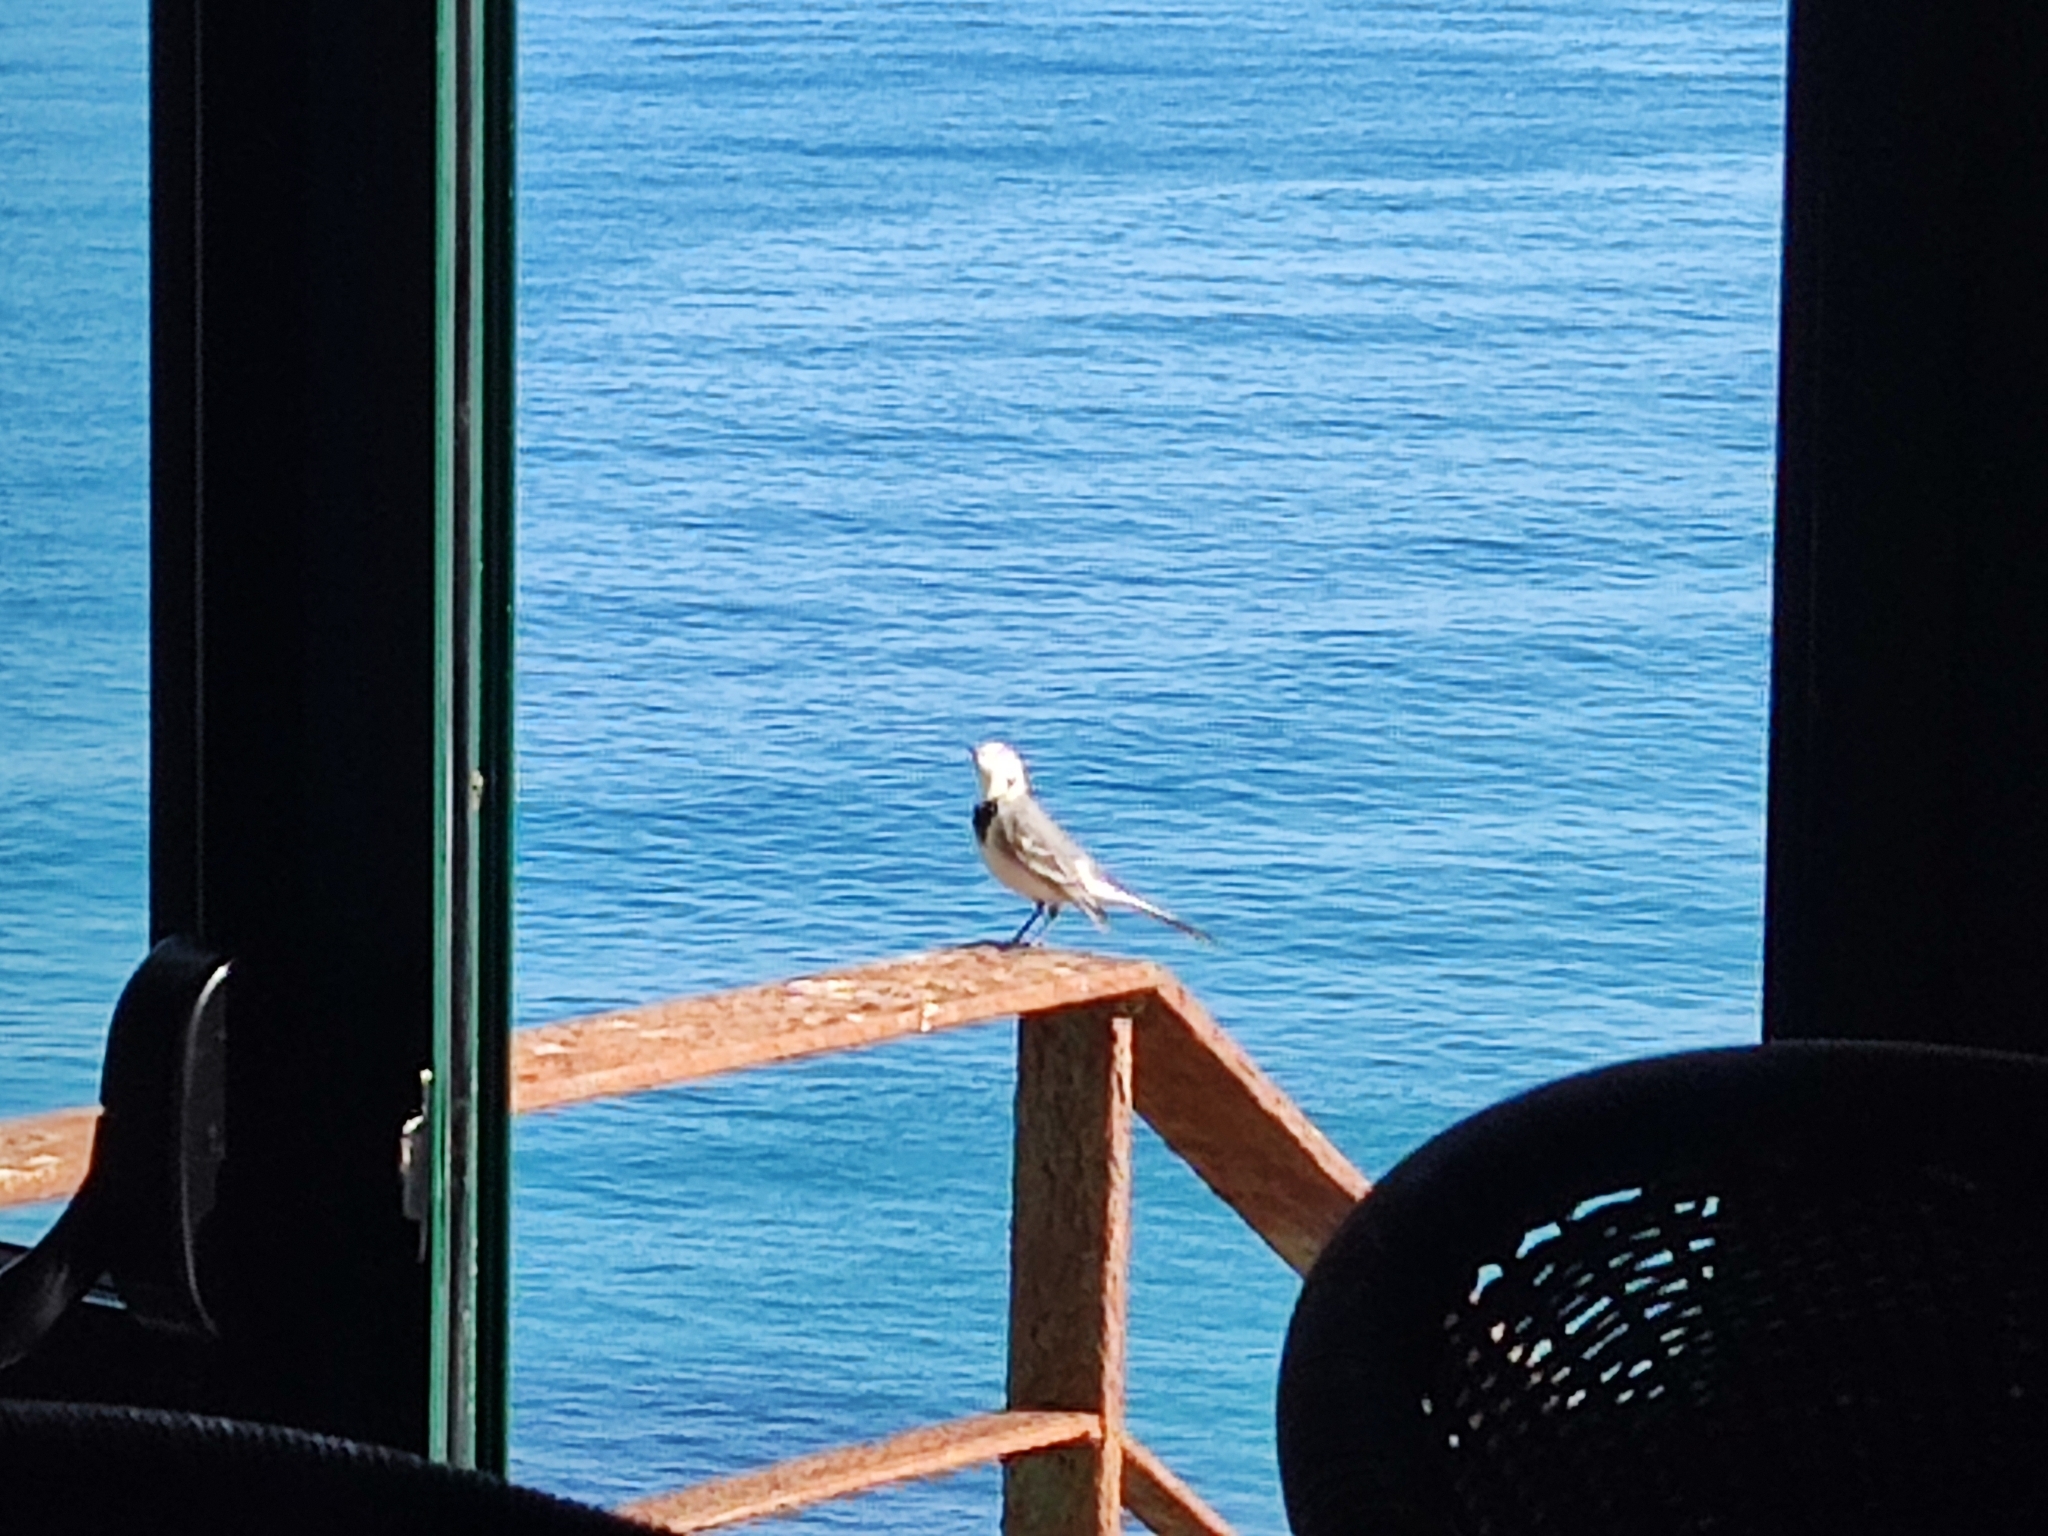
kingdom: Animalia
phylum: Chordata
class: Aves
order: Passeriformes
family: Motacillidae
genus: Motacilla
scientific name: Motacilla alba
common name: White wagtail
